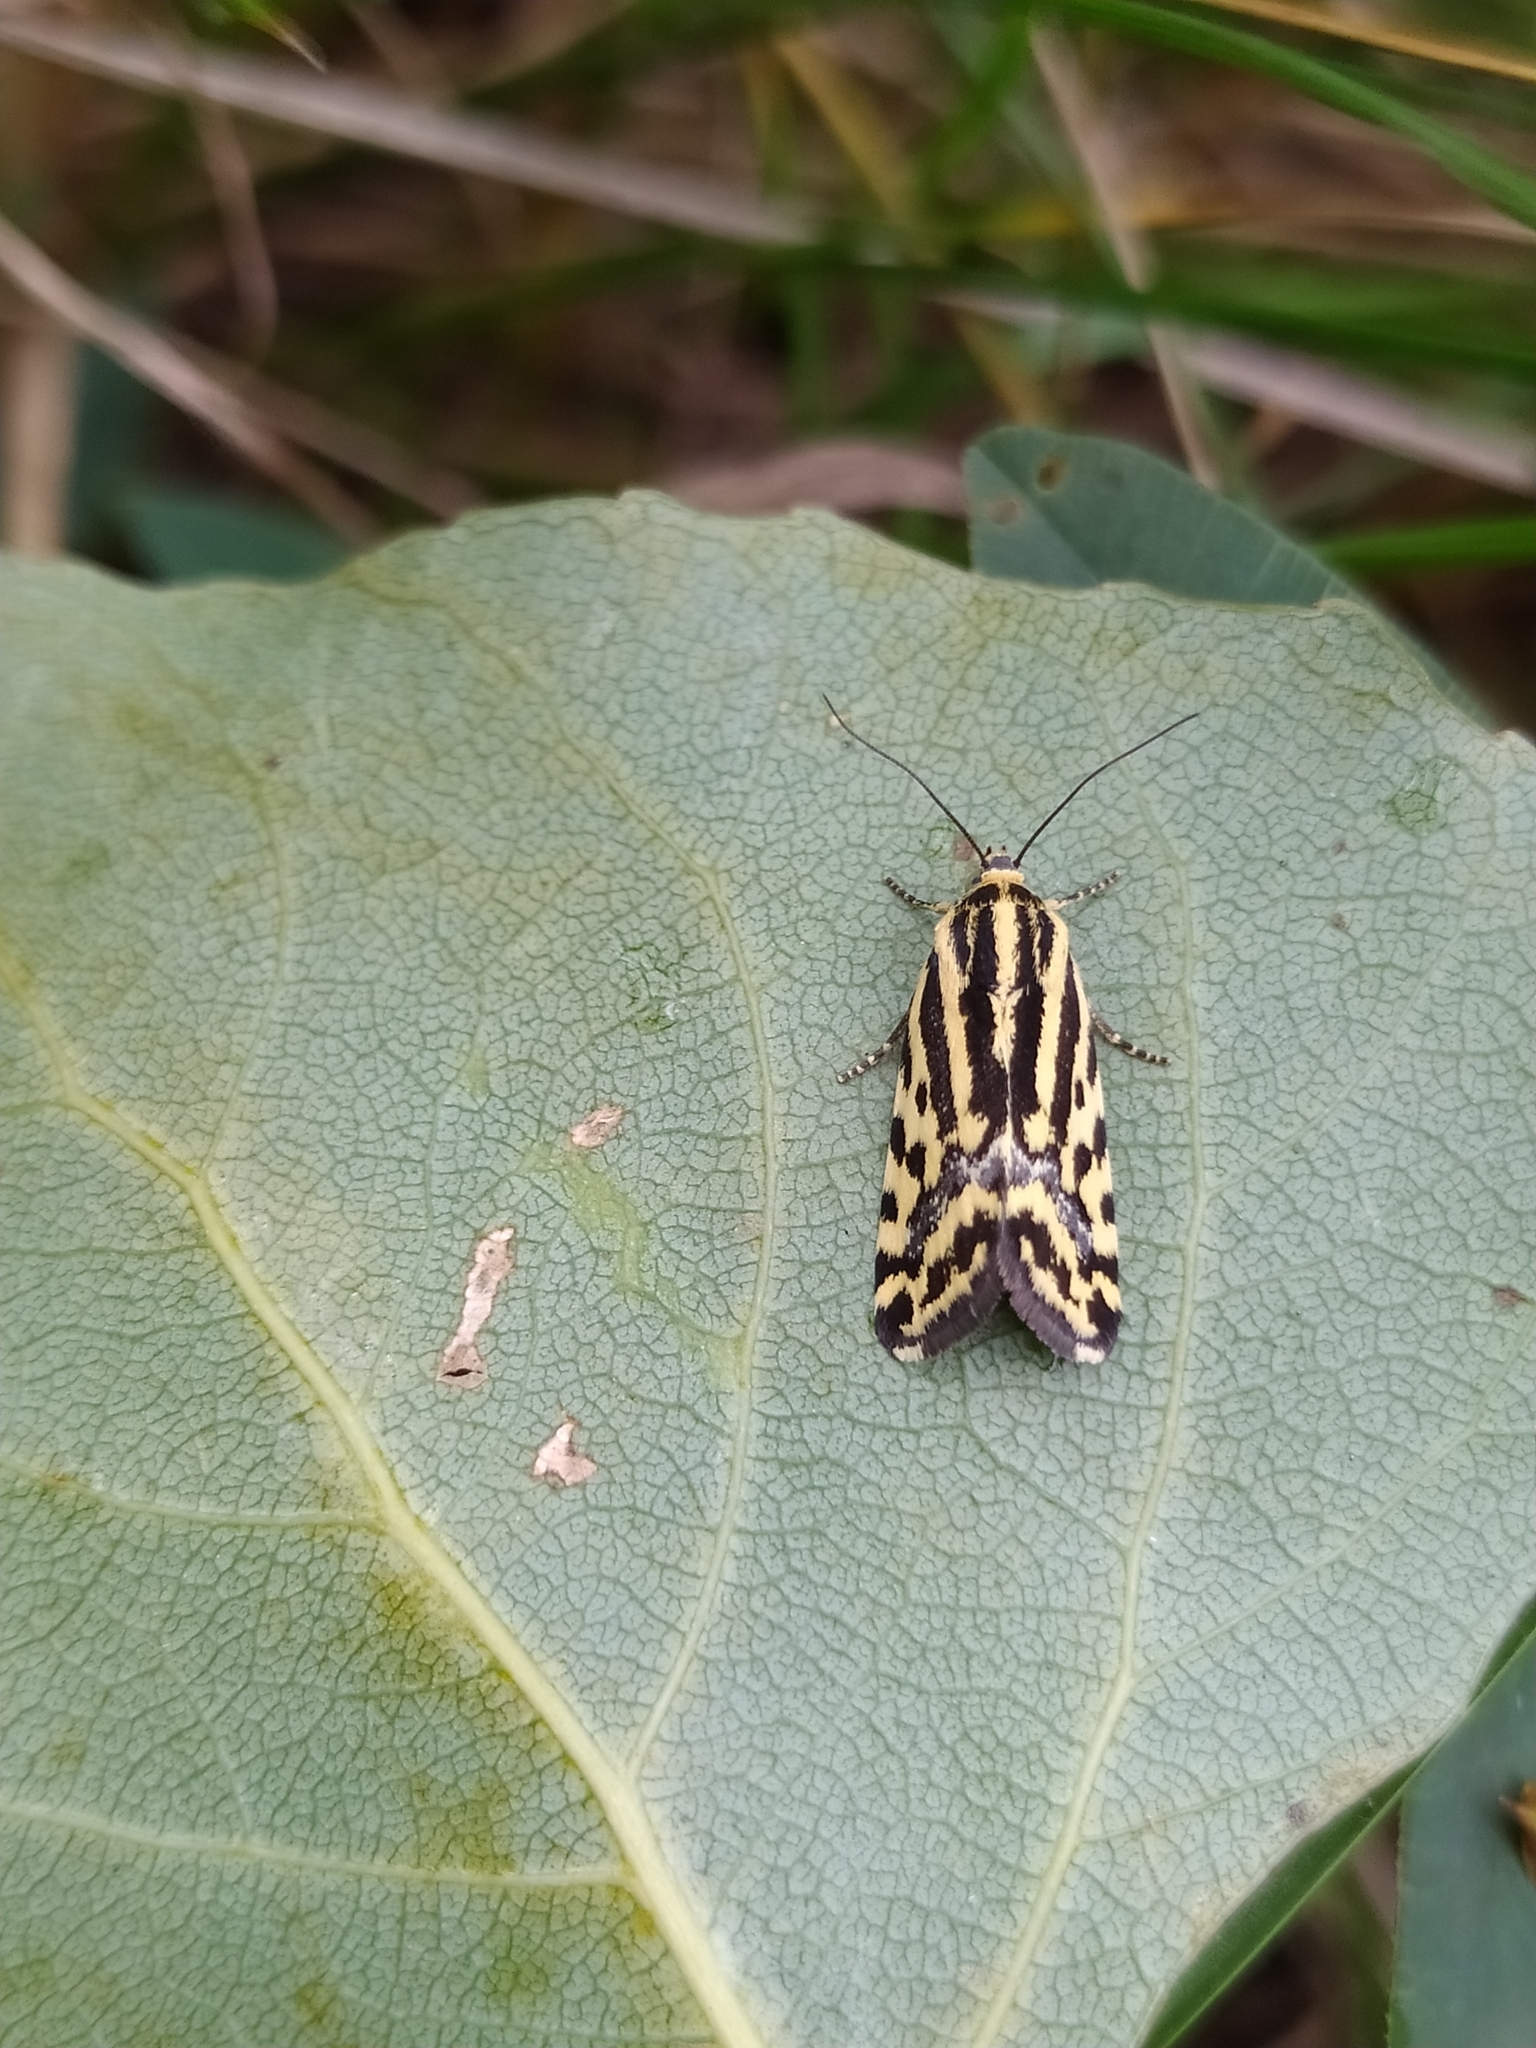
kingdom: Animalia
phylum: Arthropoda
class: Insecta
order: Lepidoptera
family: Noctuidae
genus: Acontia
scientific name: Acontia trabealis
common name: Spotted sulphur
